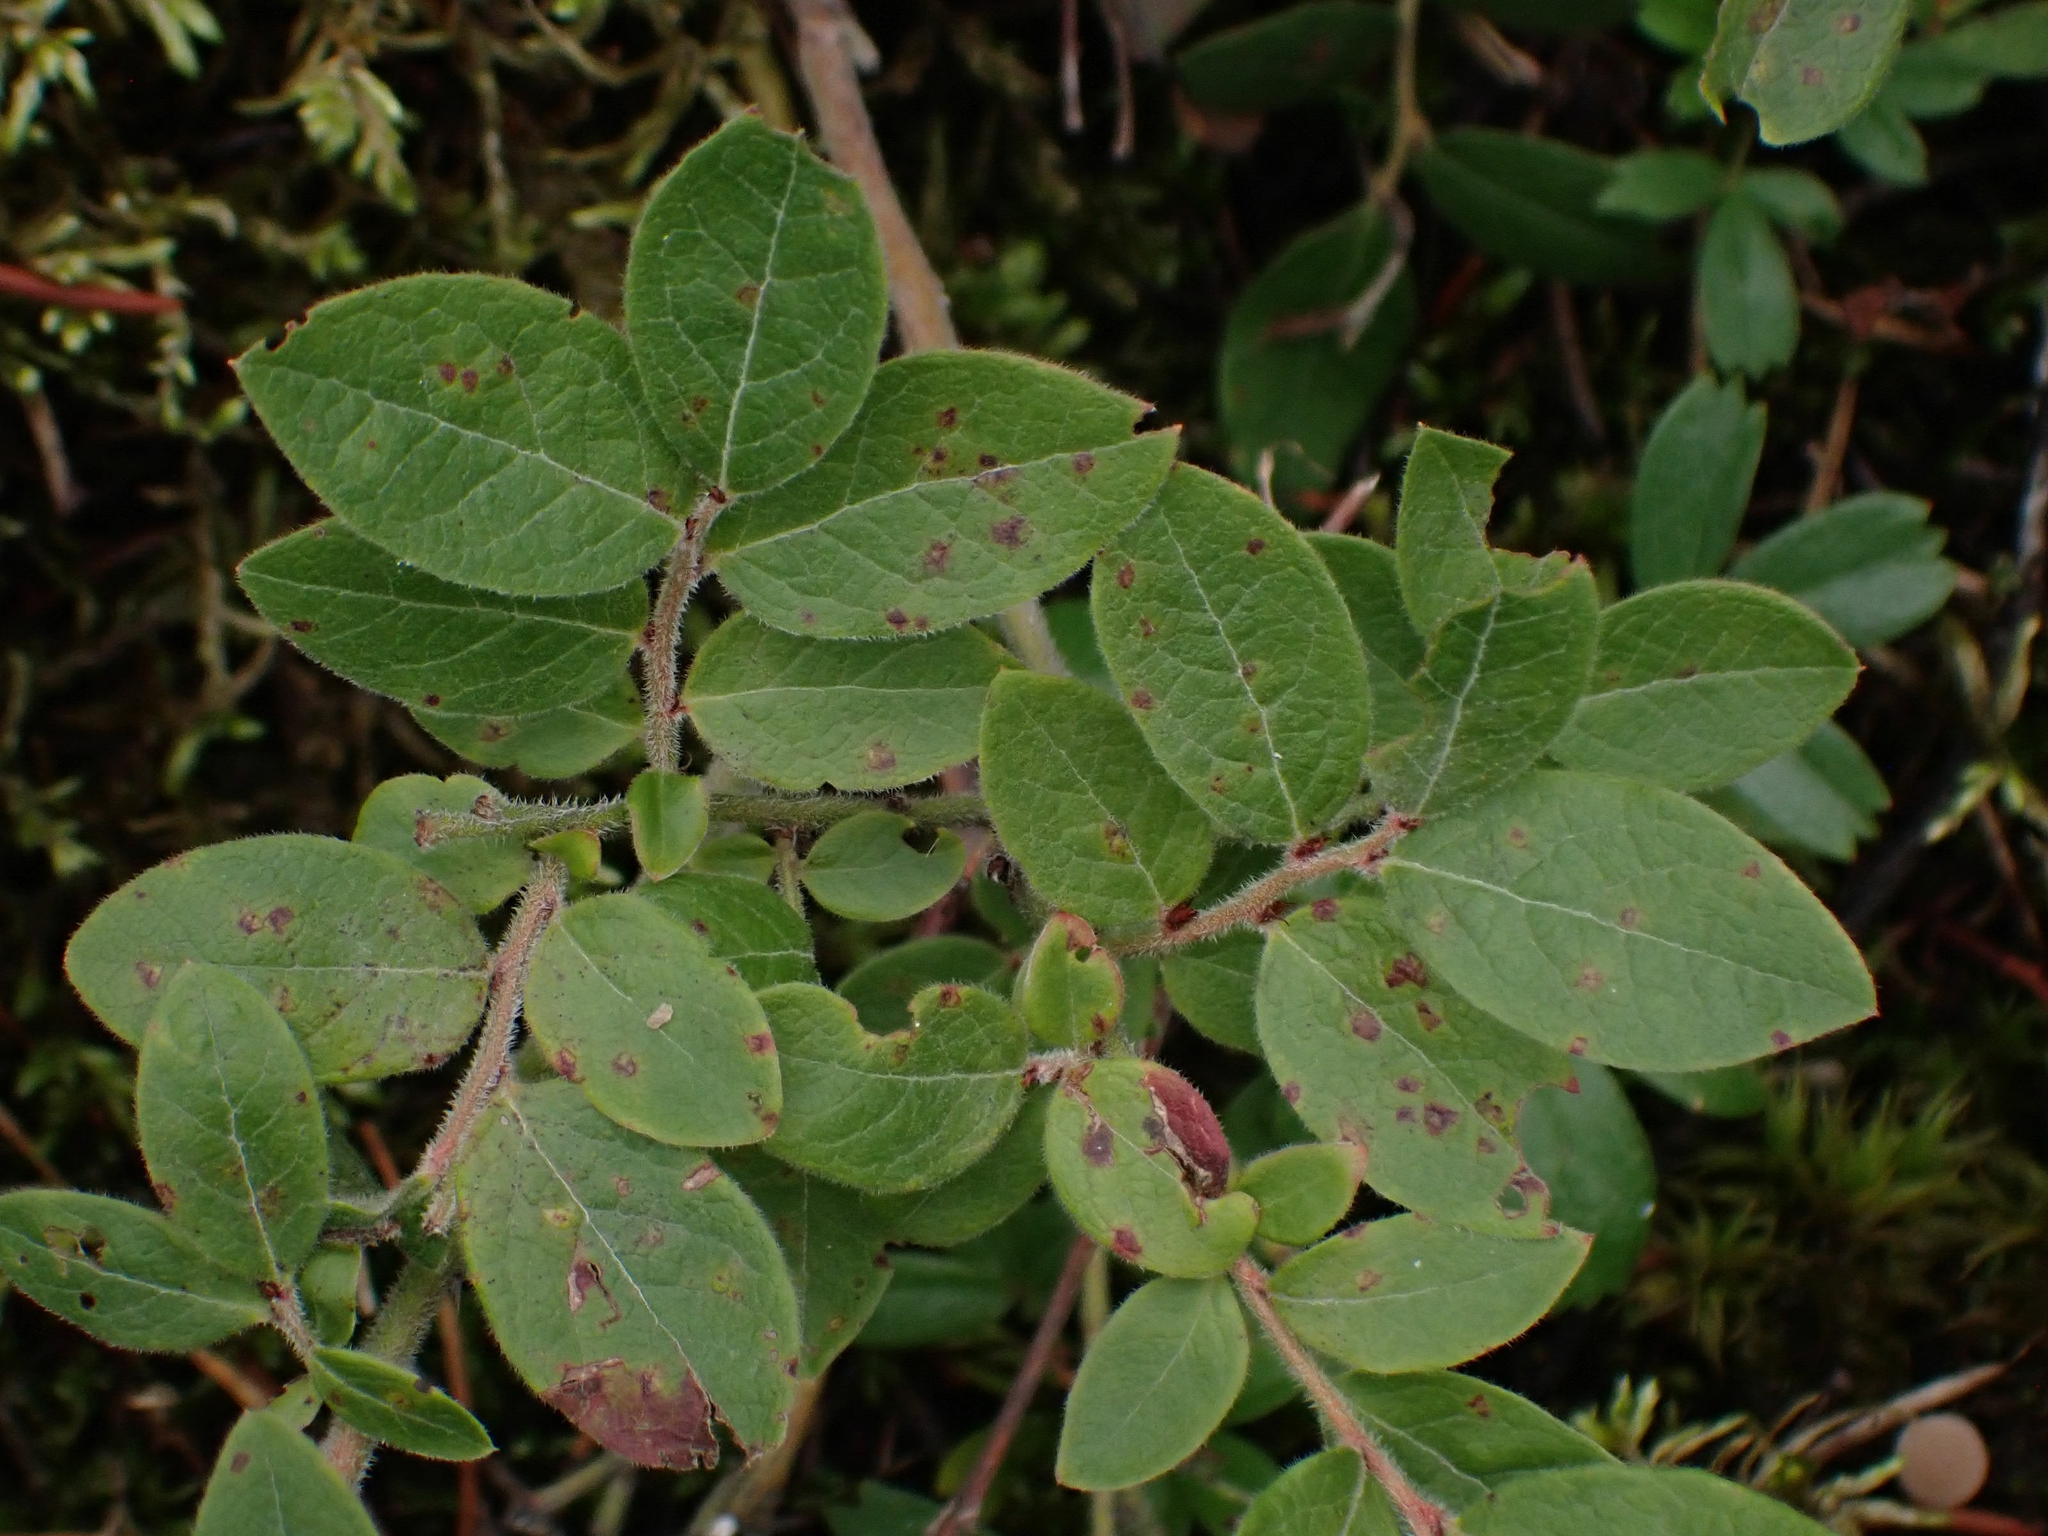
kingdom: Plantae
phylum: Tracheophyta
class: Magnoliopsida
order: Ericales
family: Ericaceae
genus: Vaccinium
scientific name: Vaccinium myrtilloides
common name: Canada blueberry
